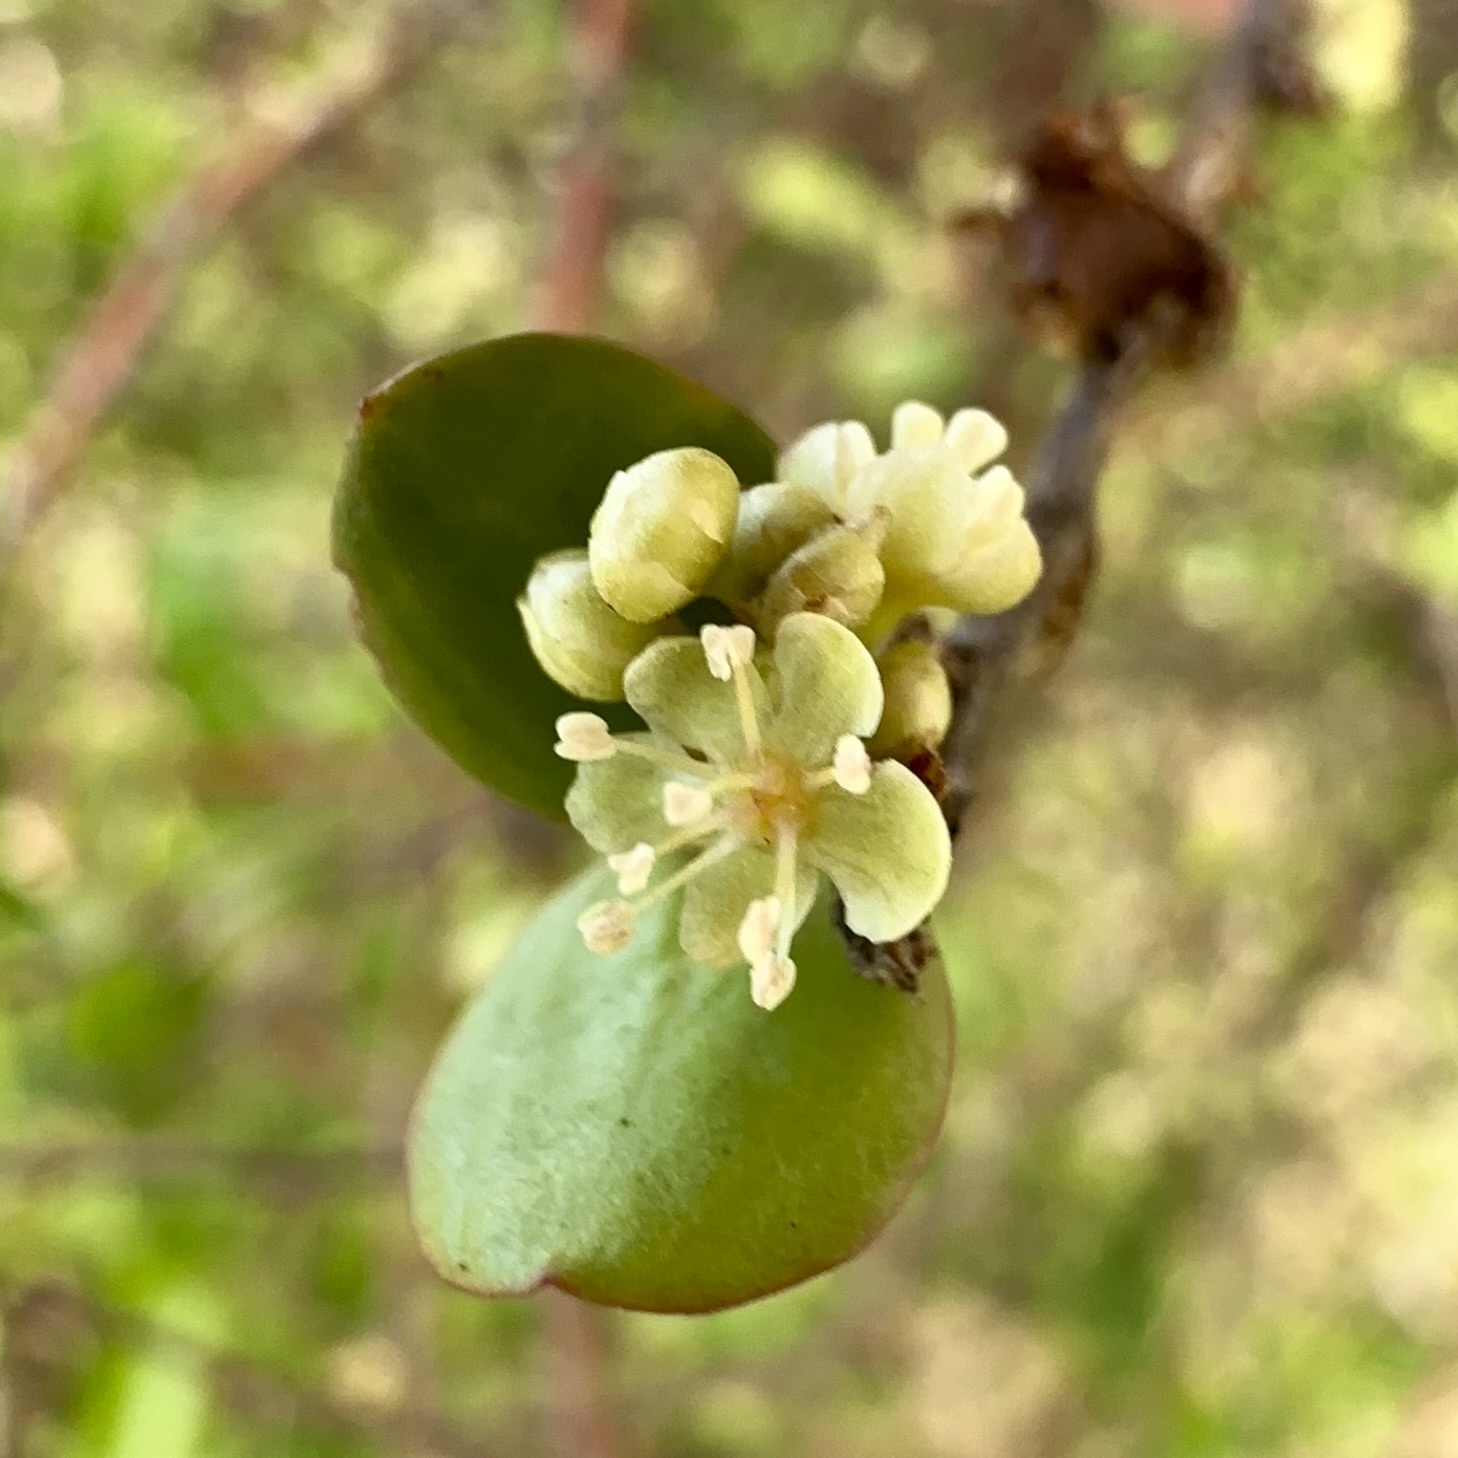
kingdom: Plantae
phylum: Tracheophyta
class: Magnoliopsida
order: Caryophyllales
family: Polygonaceae
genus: Muehlenbeckia
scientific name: Muehlenbeckia complexa
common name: Wireplant
